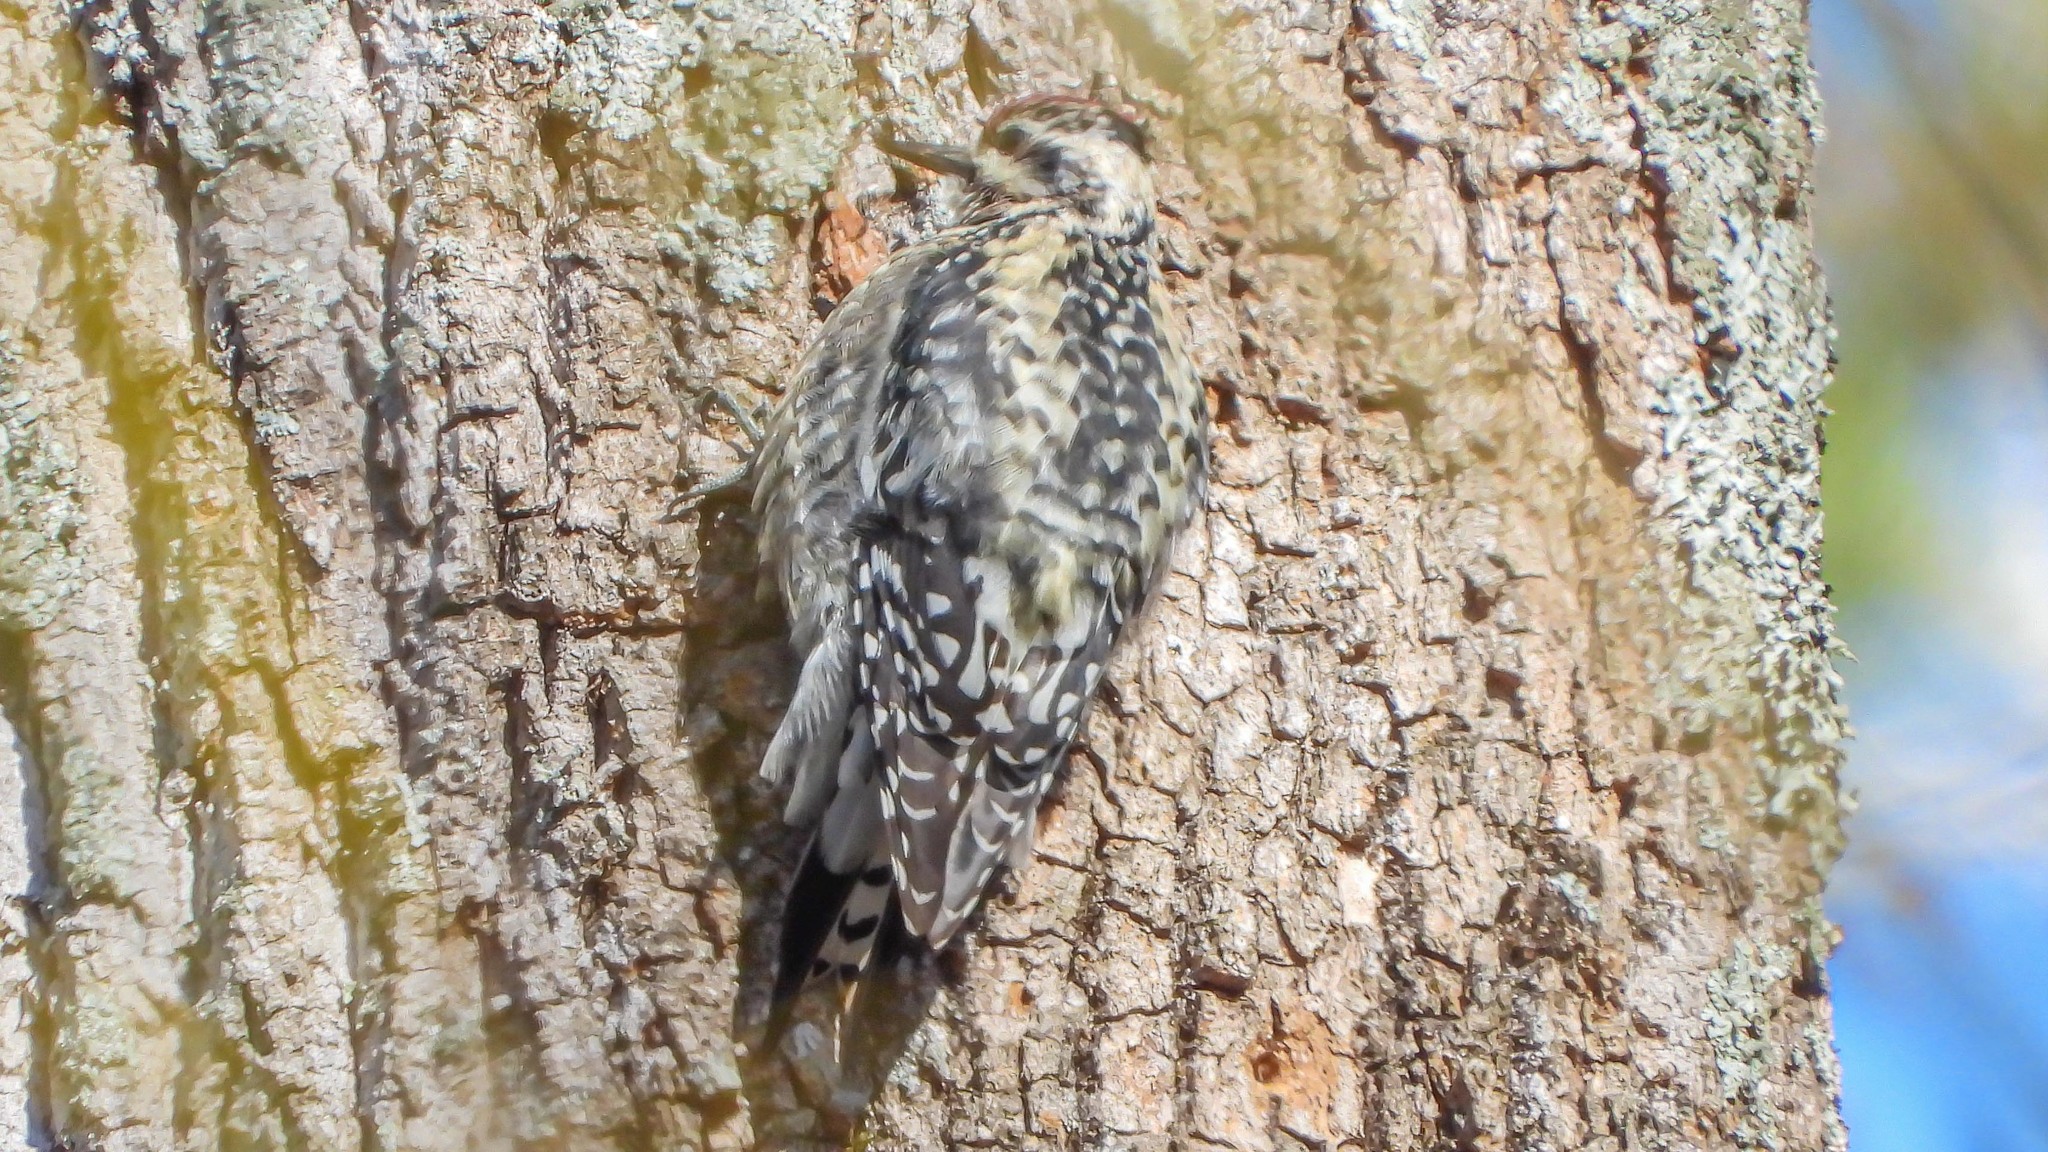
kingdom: Animalia
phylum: Chordata
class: Aves
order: Piciformes
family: Picidae
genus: Sphyrapicus
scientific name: Sphyrapicus varius
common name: Yellow-bellied sapsucker
